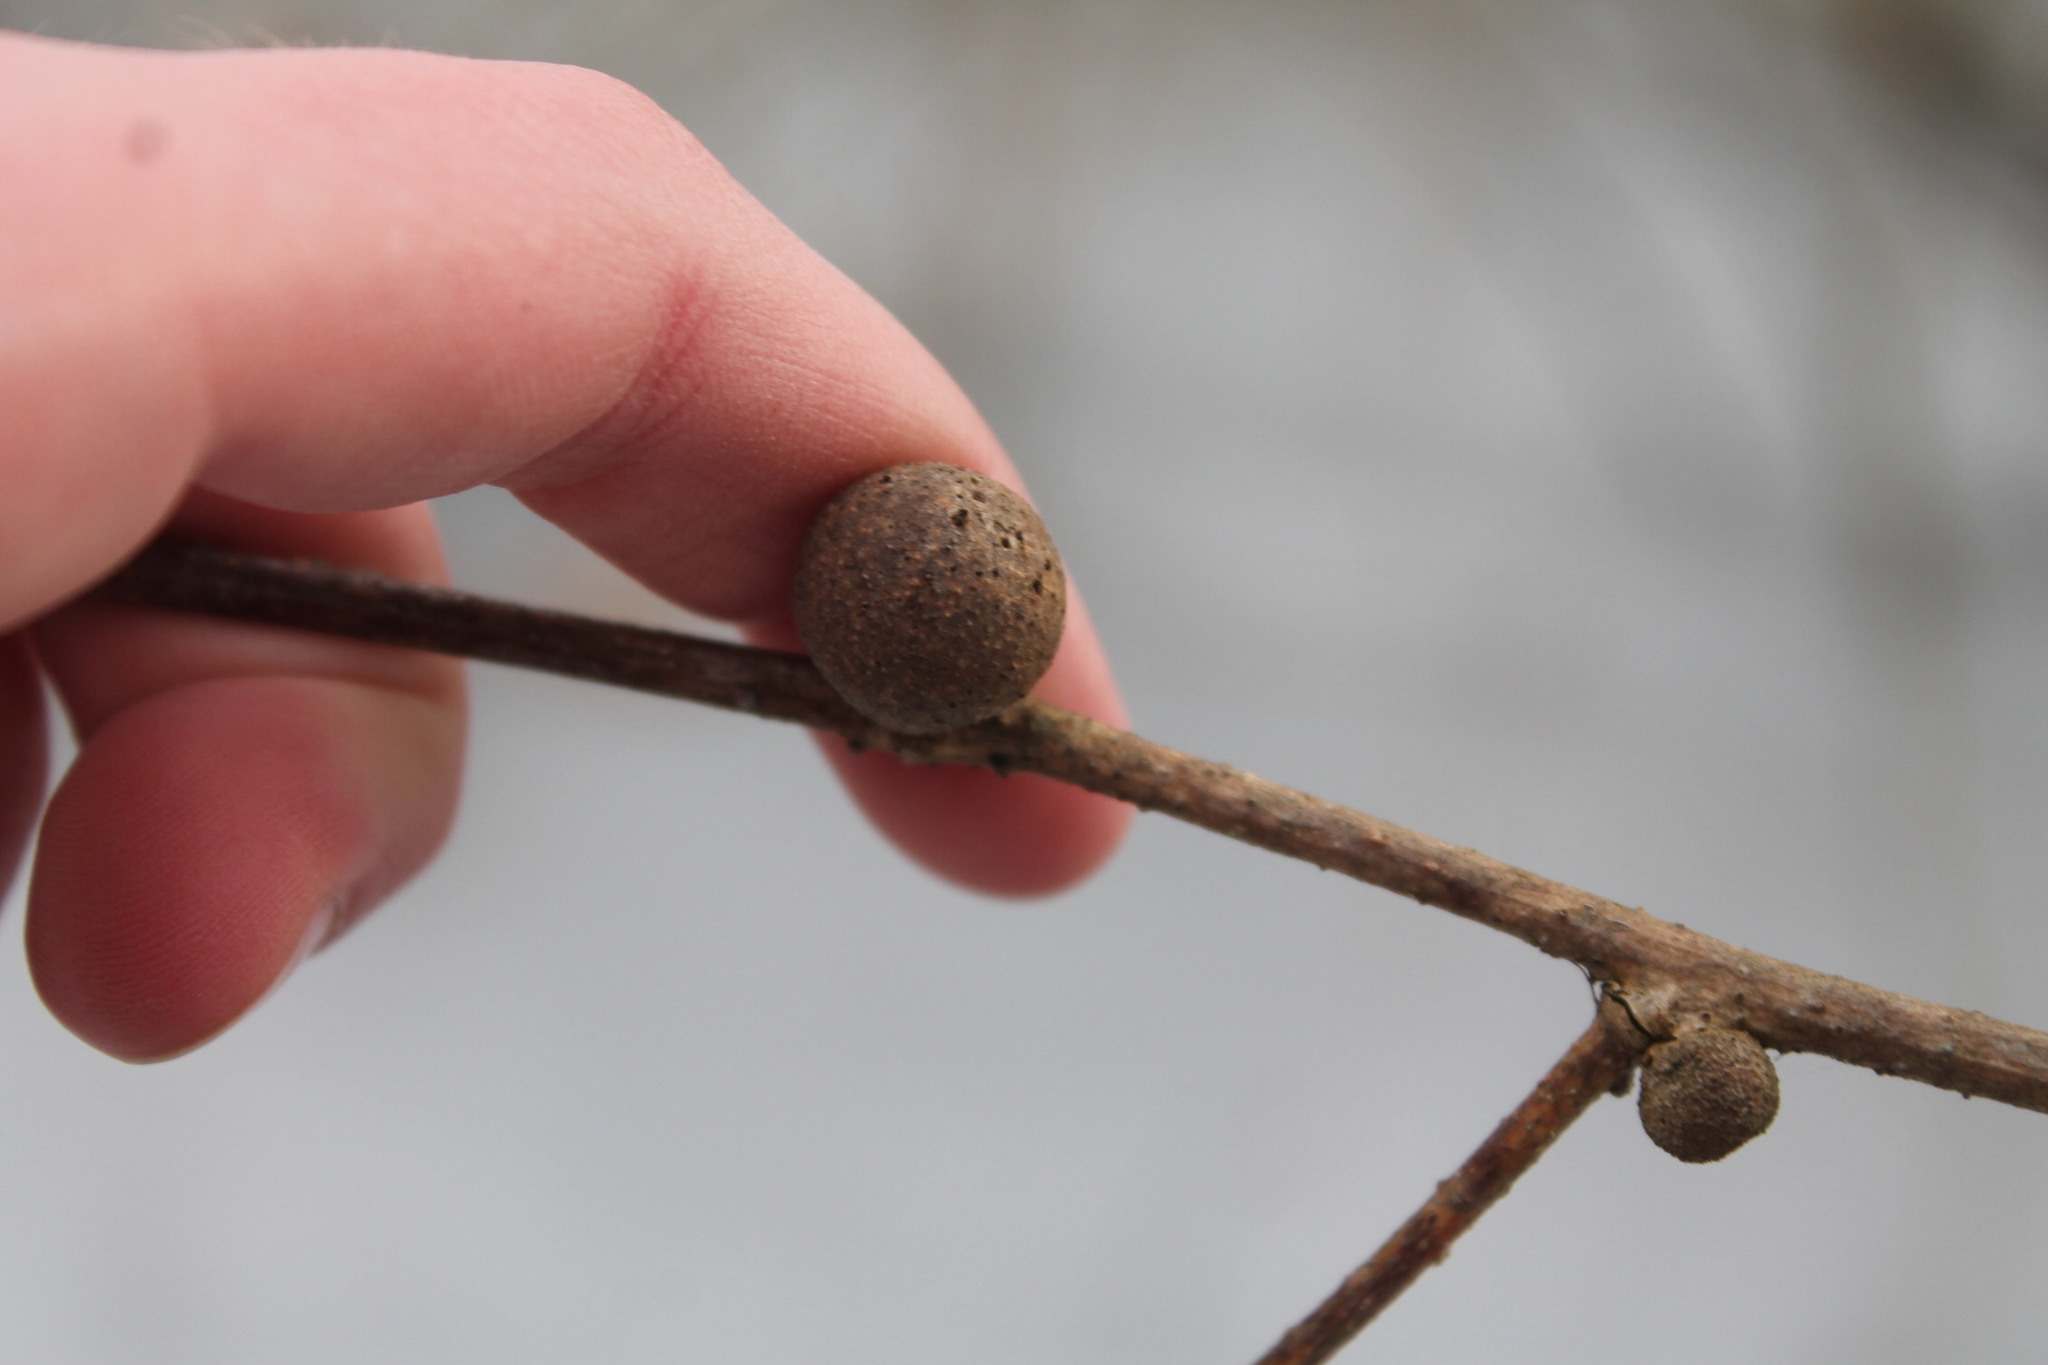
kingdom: Animalia
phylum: Arthropoda
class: Insecta
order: Hymenoptera
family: Cynipidae
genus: Disholcaspis
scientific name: Disholcaspis quercusglobulus
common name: Round bullet gall wasp
